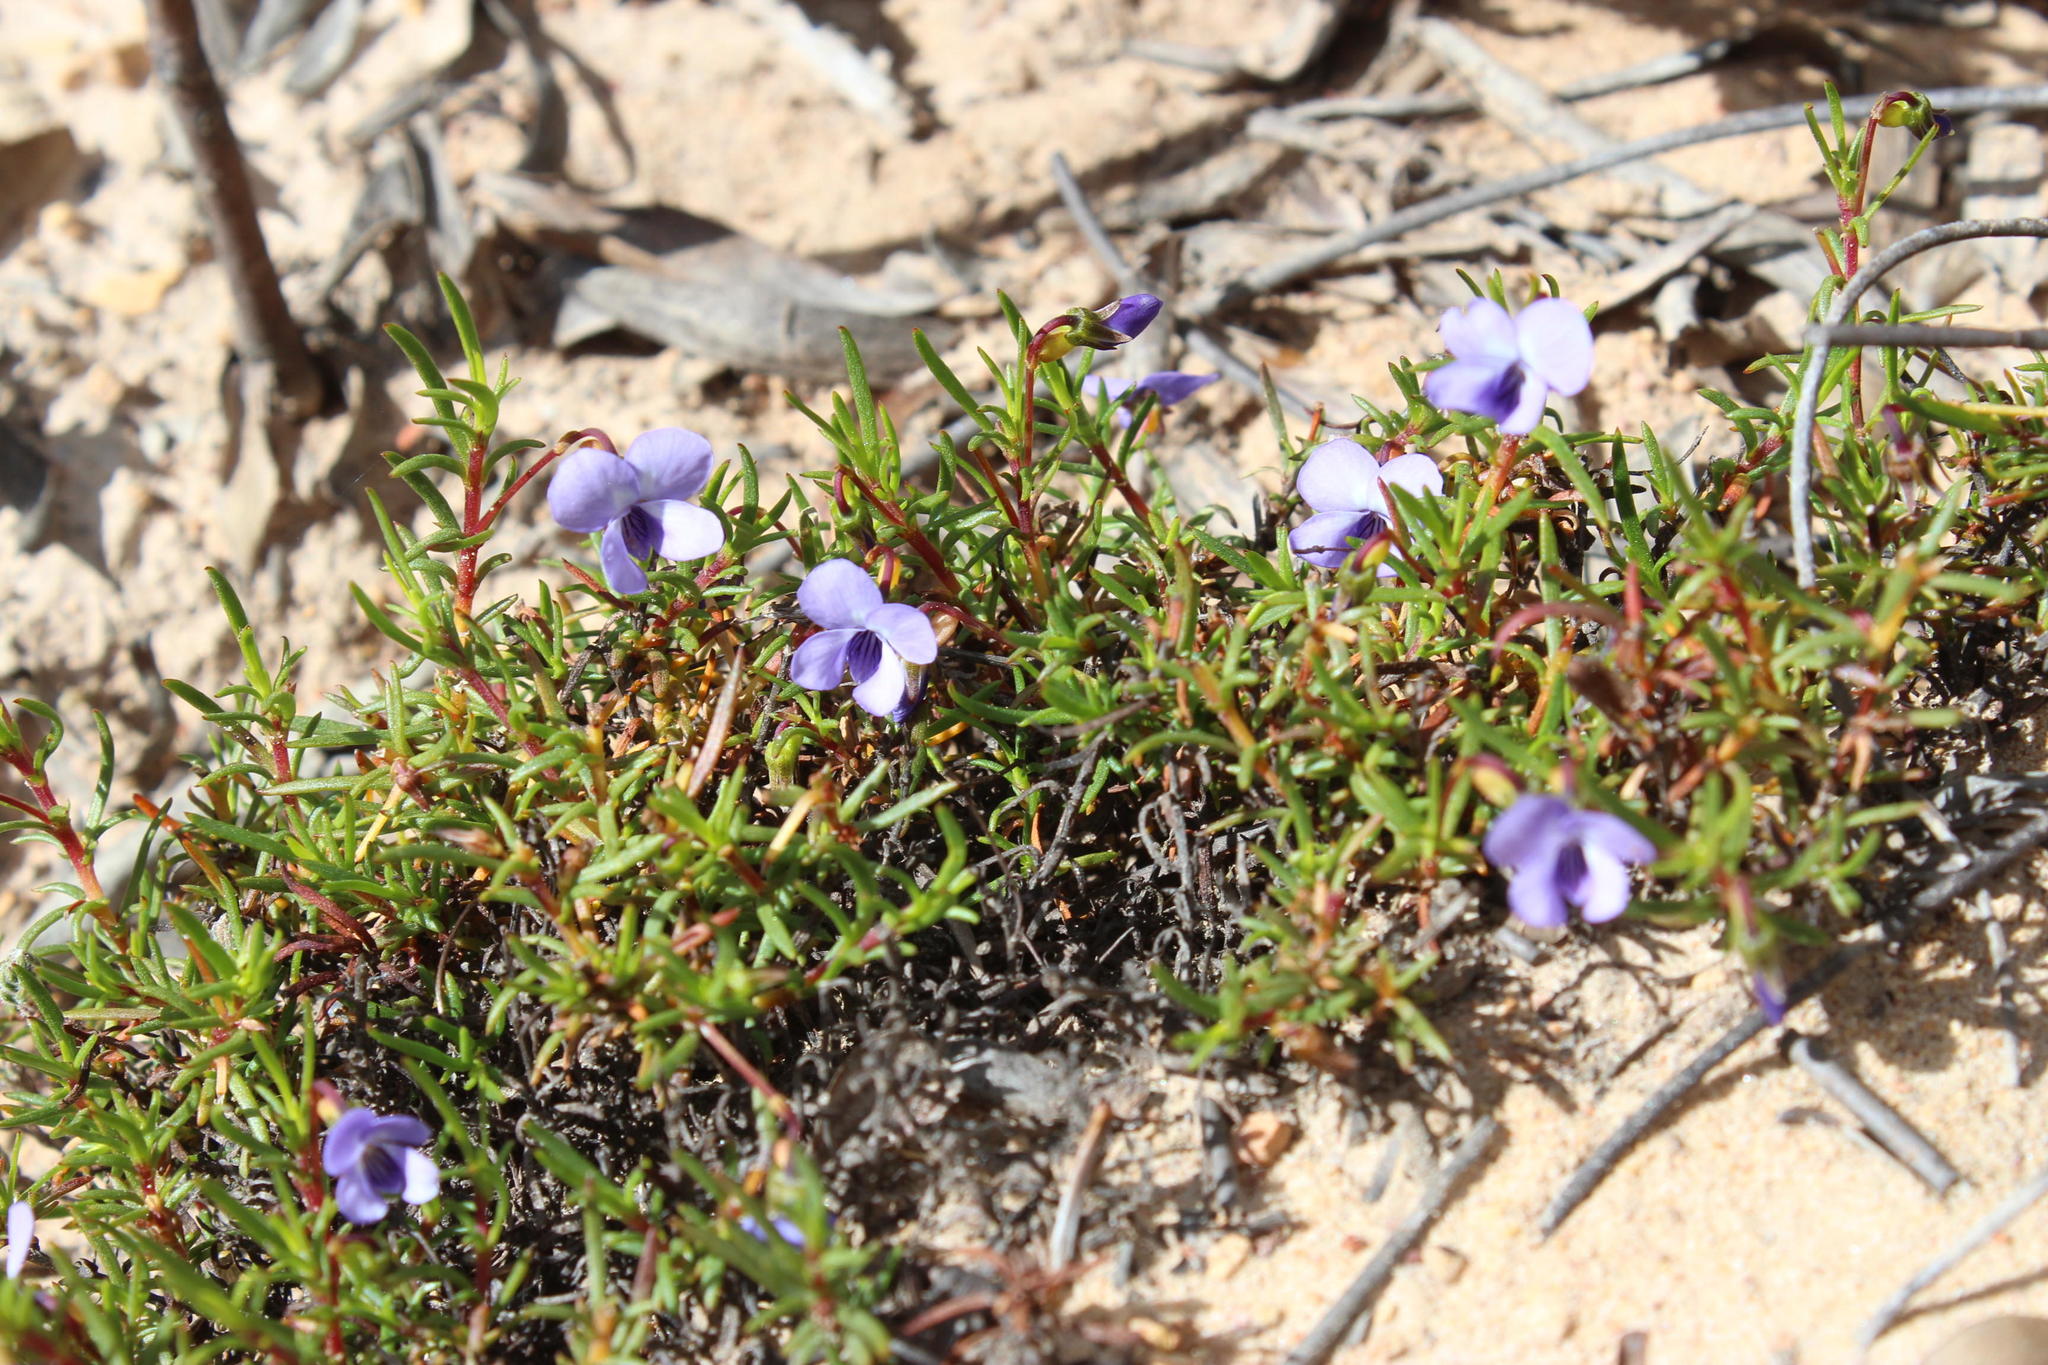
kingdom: Plantae
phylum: Tracheophyta
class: Magnoliopsida
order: Malpighiales
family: Violaceae
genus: Viola
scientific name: Viola decumbens
